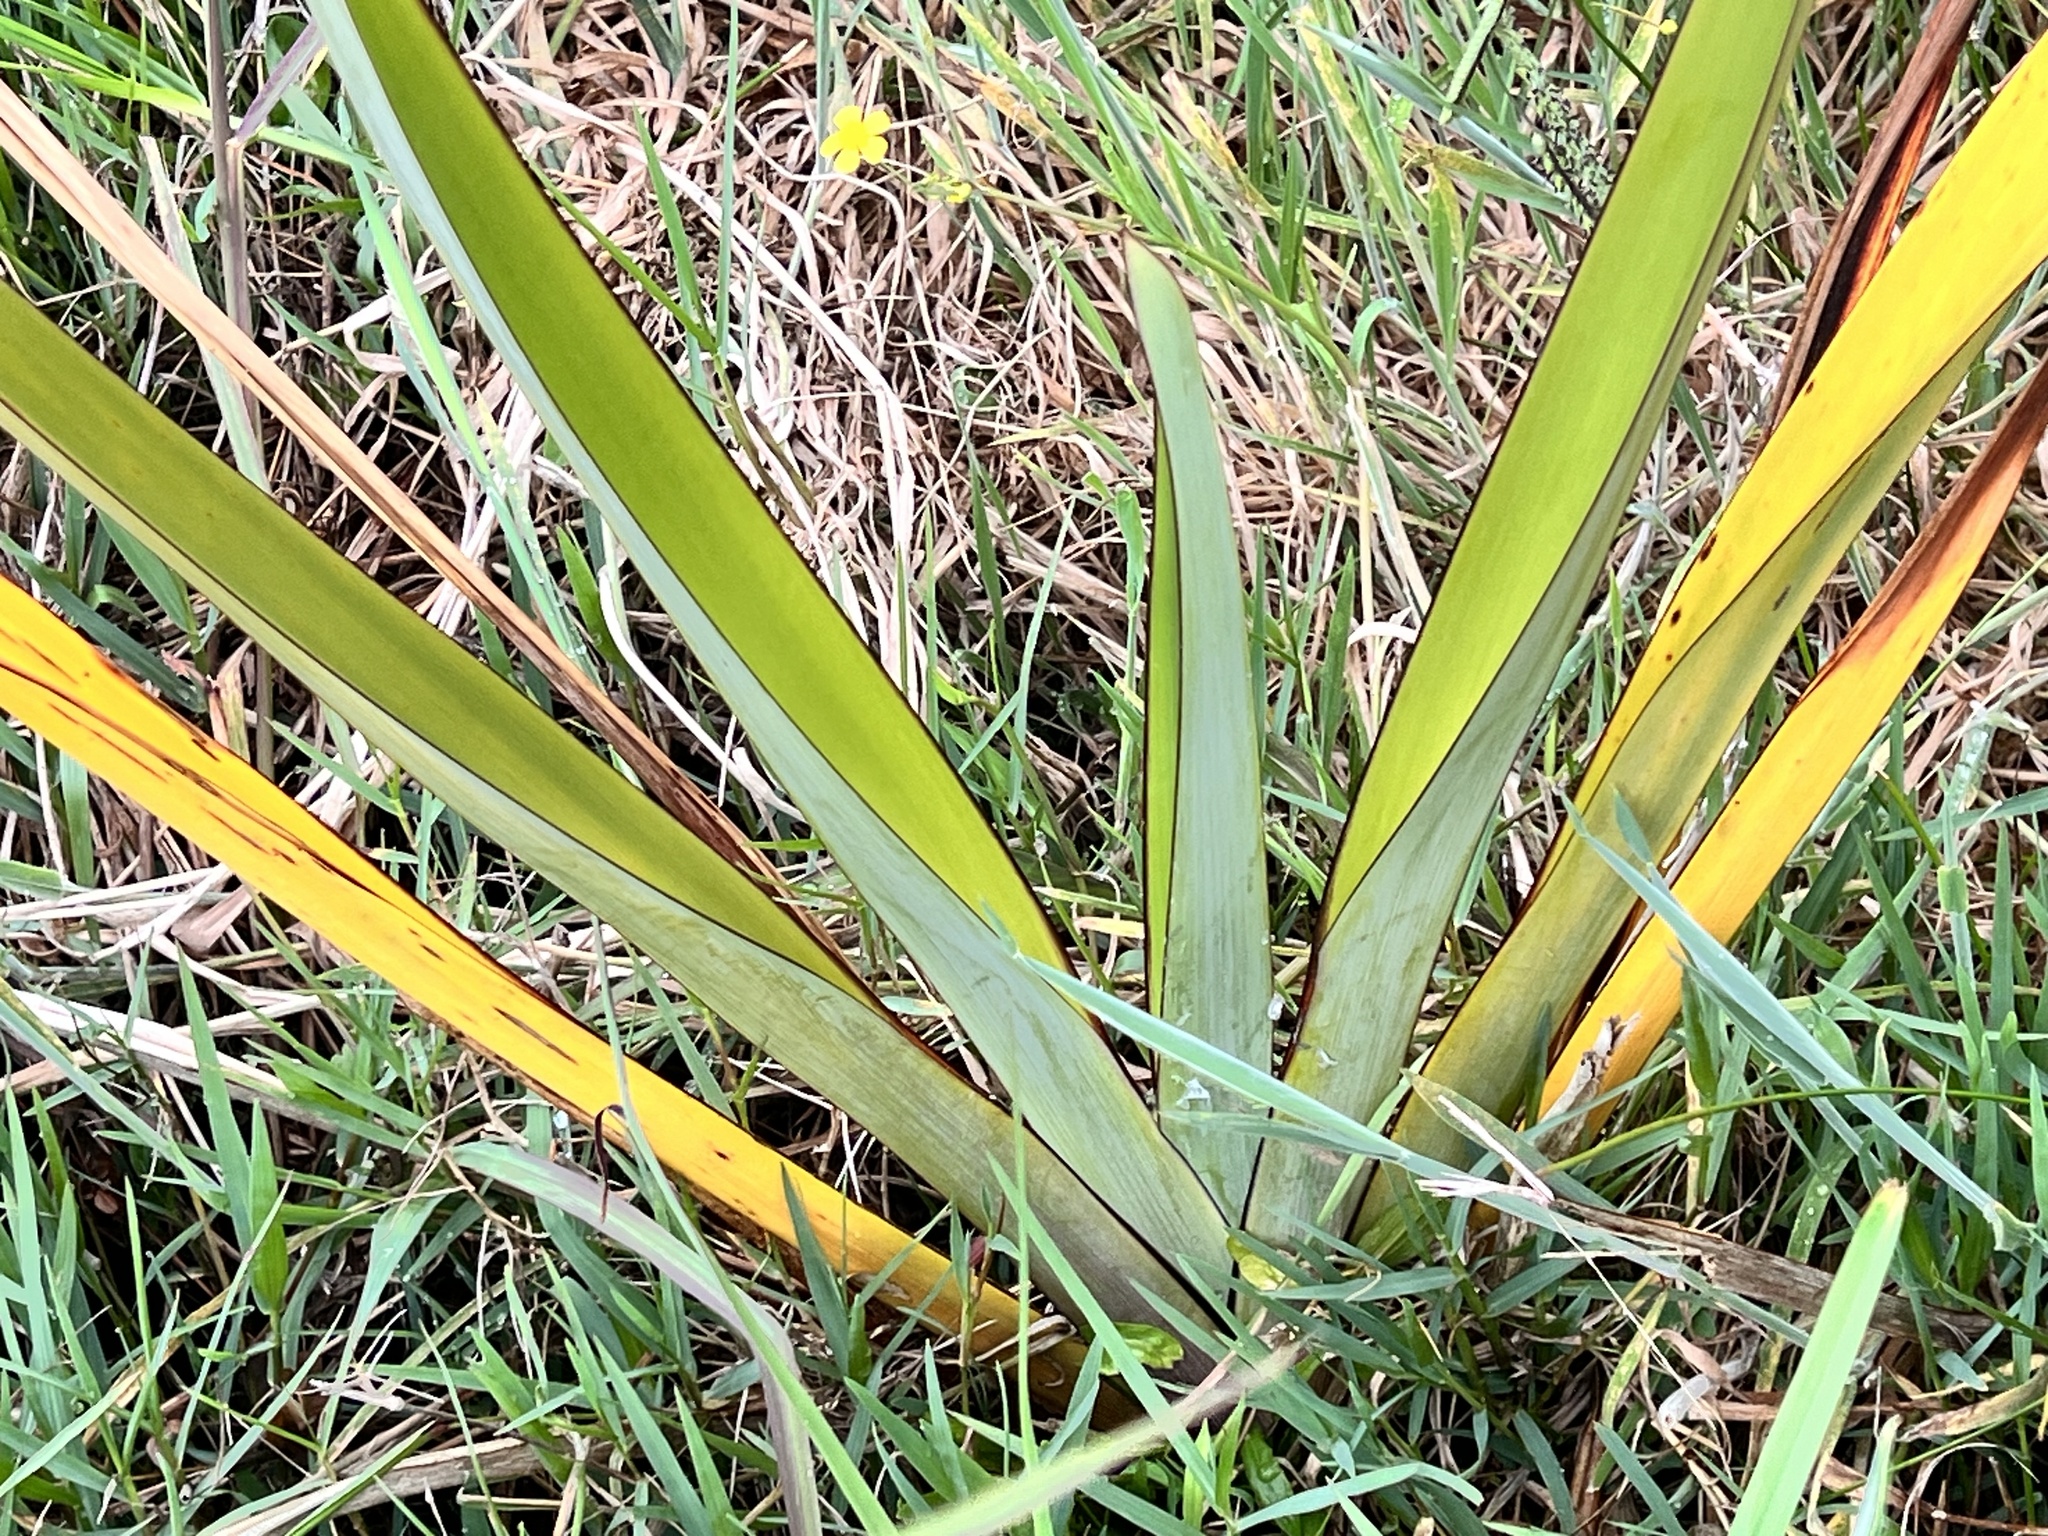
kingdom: Plantae
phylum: Tracheophyta
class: Liliopsida
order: Asparagales
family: Asphodelaceae
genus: Phormium
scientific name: Phormium tenax
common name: New zealand flax
